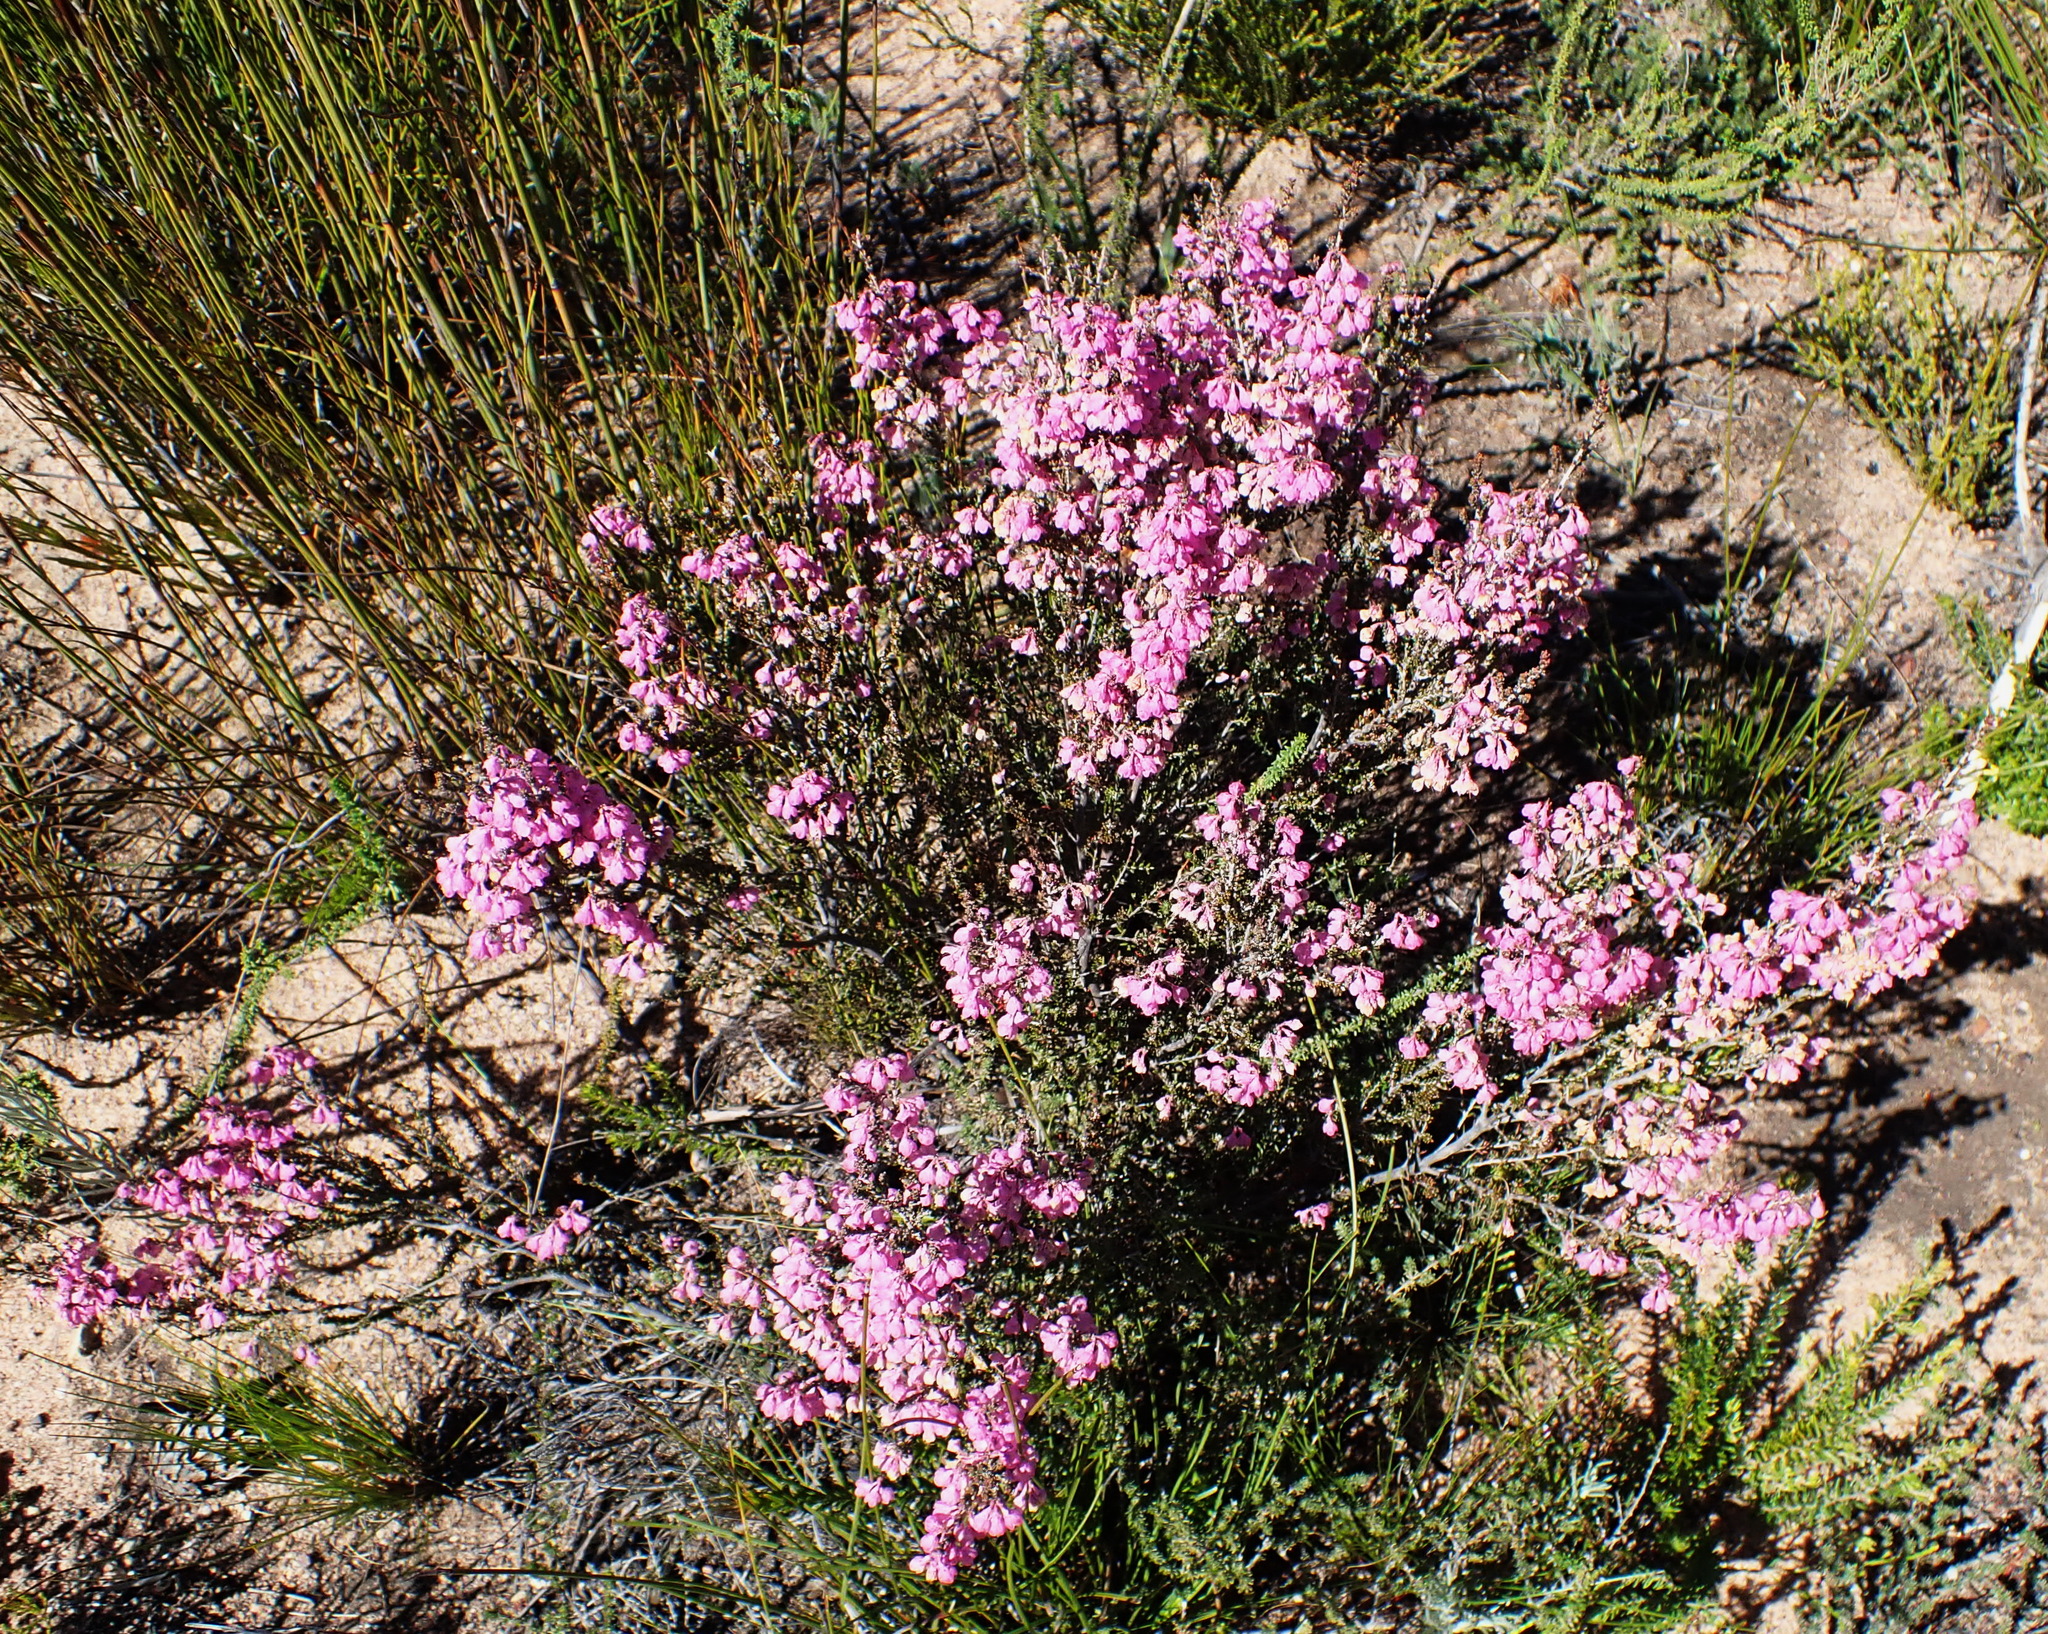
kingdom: Plantae
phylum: Tracheophyta
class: Magnoliopsida
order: Ericales
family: Ericaceae
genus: Erica
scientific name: Erica melanthera
